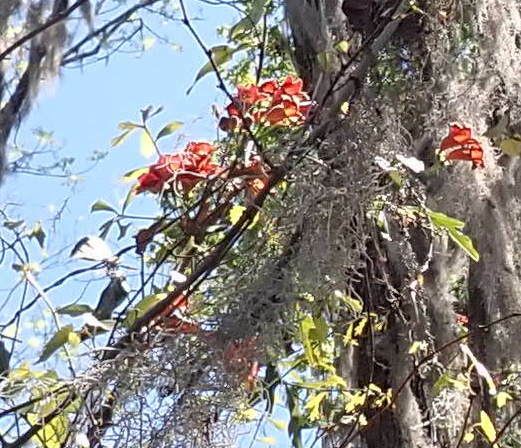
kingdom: Plantae
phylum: Tracheophyta
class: Magnoliopsida
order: Lamiales
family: Bignoniaceae
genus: Bignonia
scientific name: Bignonia capreolata
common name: Crossvine
